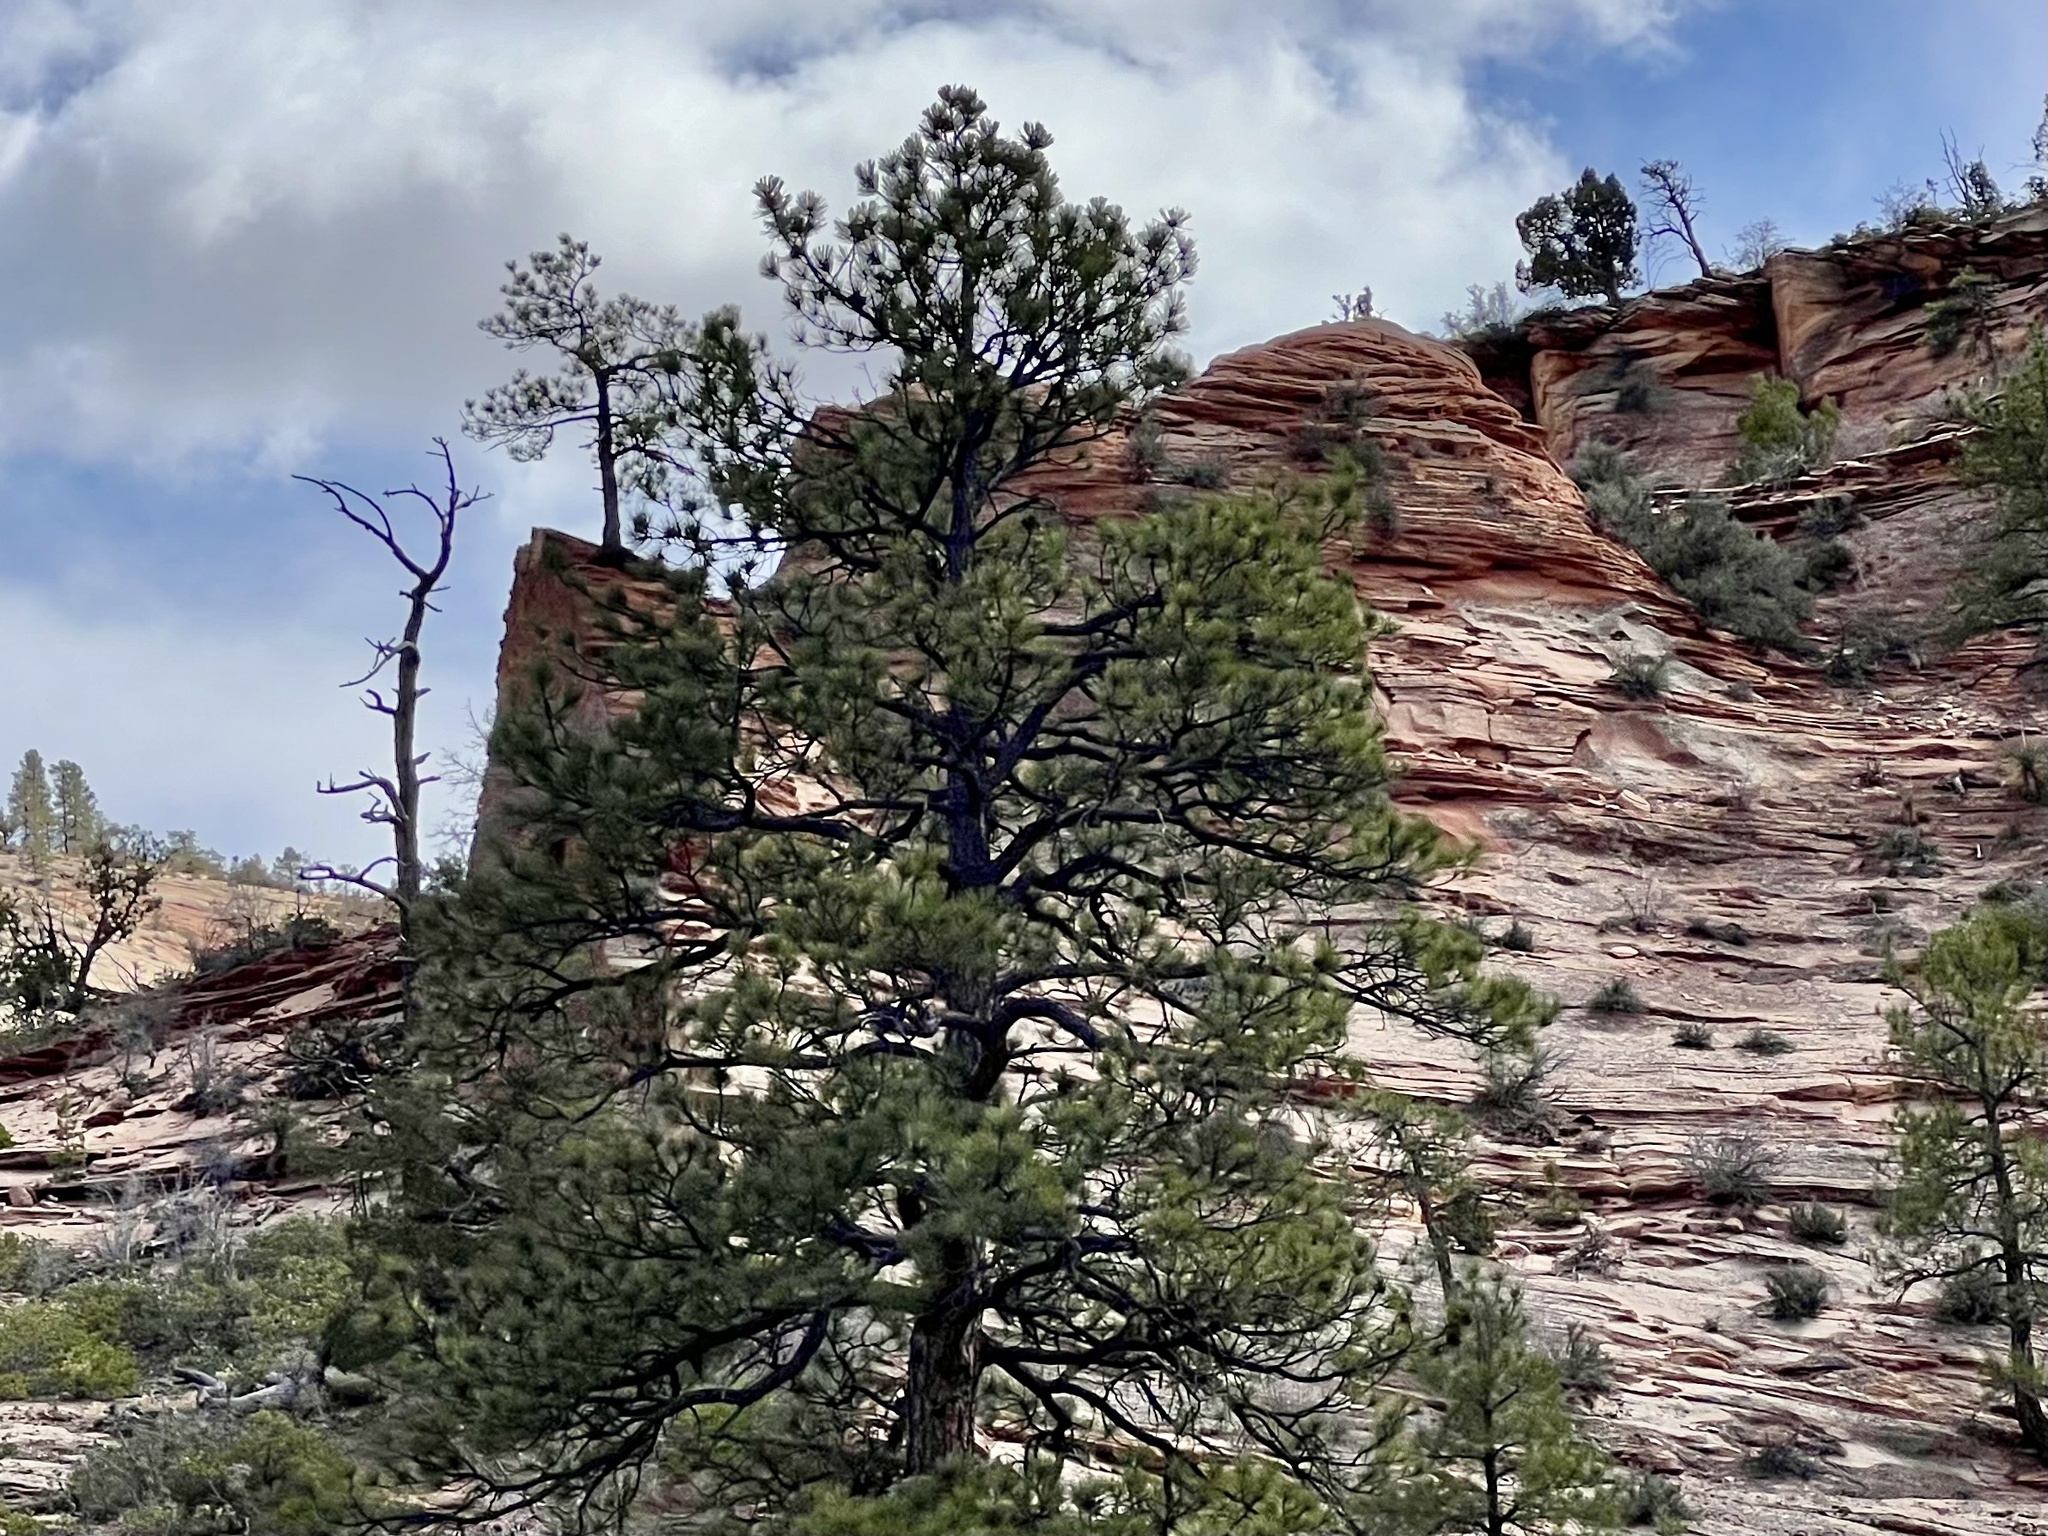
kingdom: Plantae
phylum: Tracheophyta
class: Pinopsida
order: Pinales
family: Pinaceae
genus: Pinus
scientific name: Pinus ponderosa
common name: Western yellow-pine
